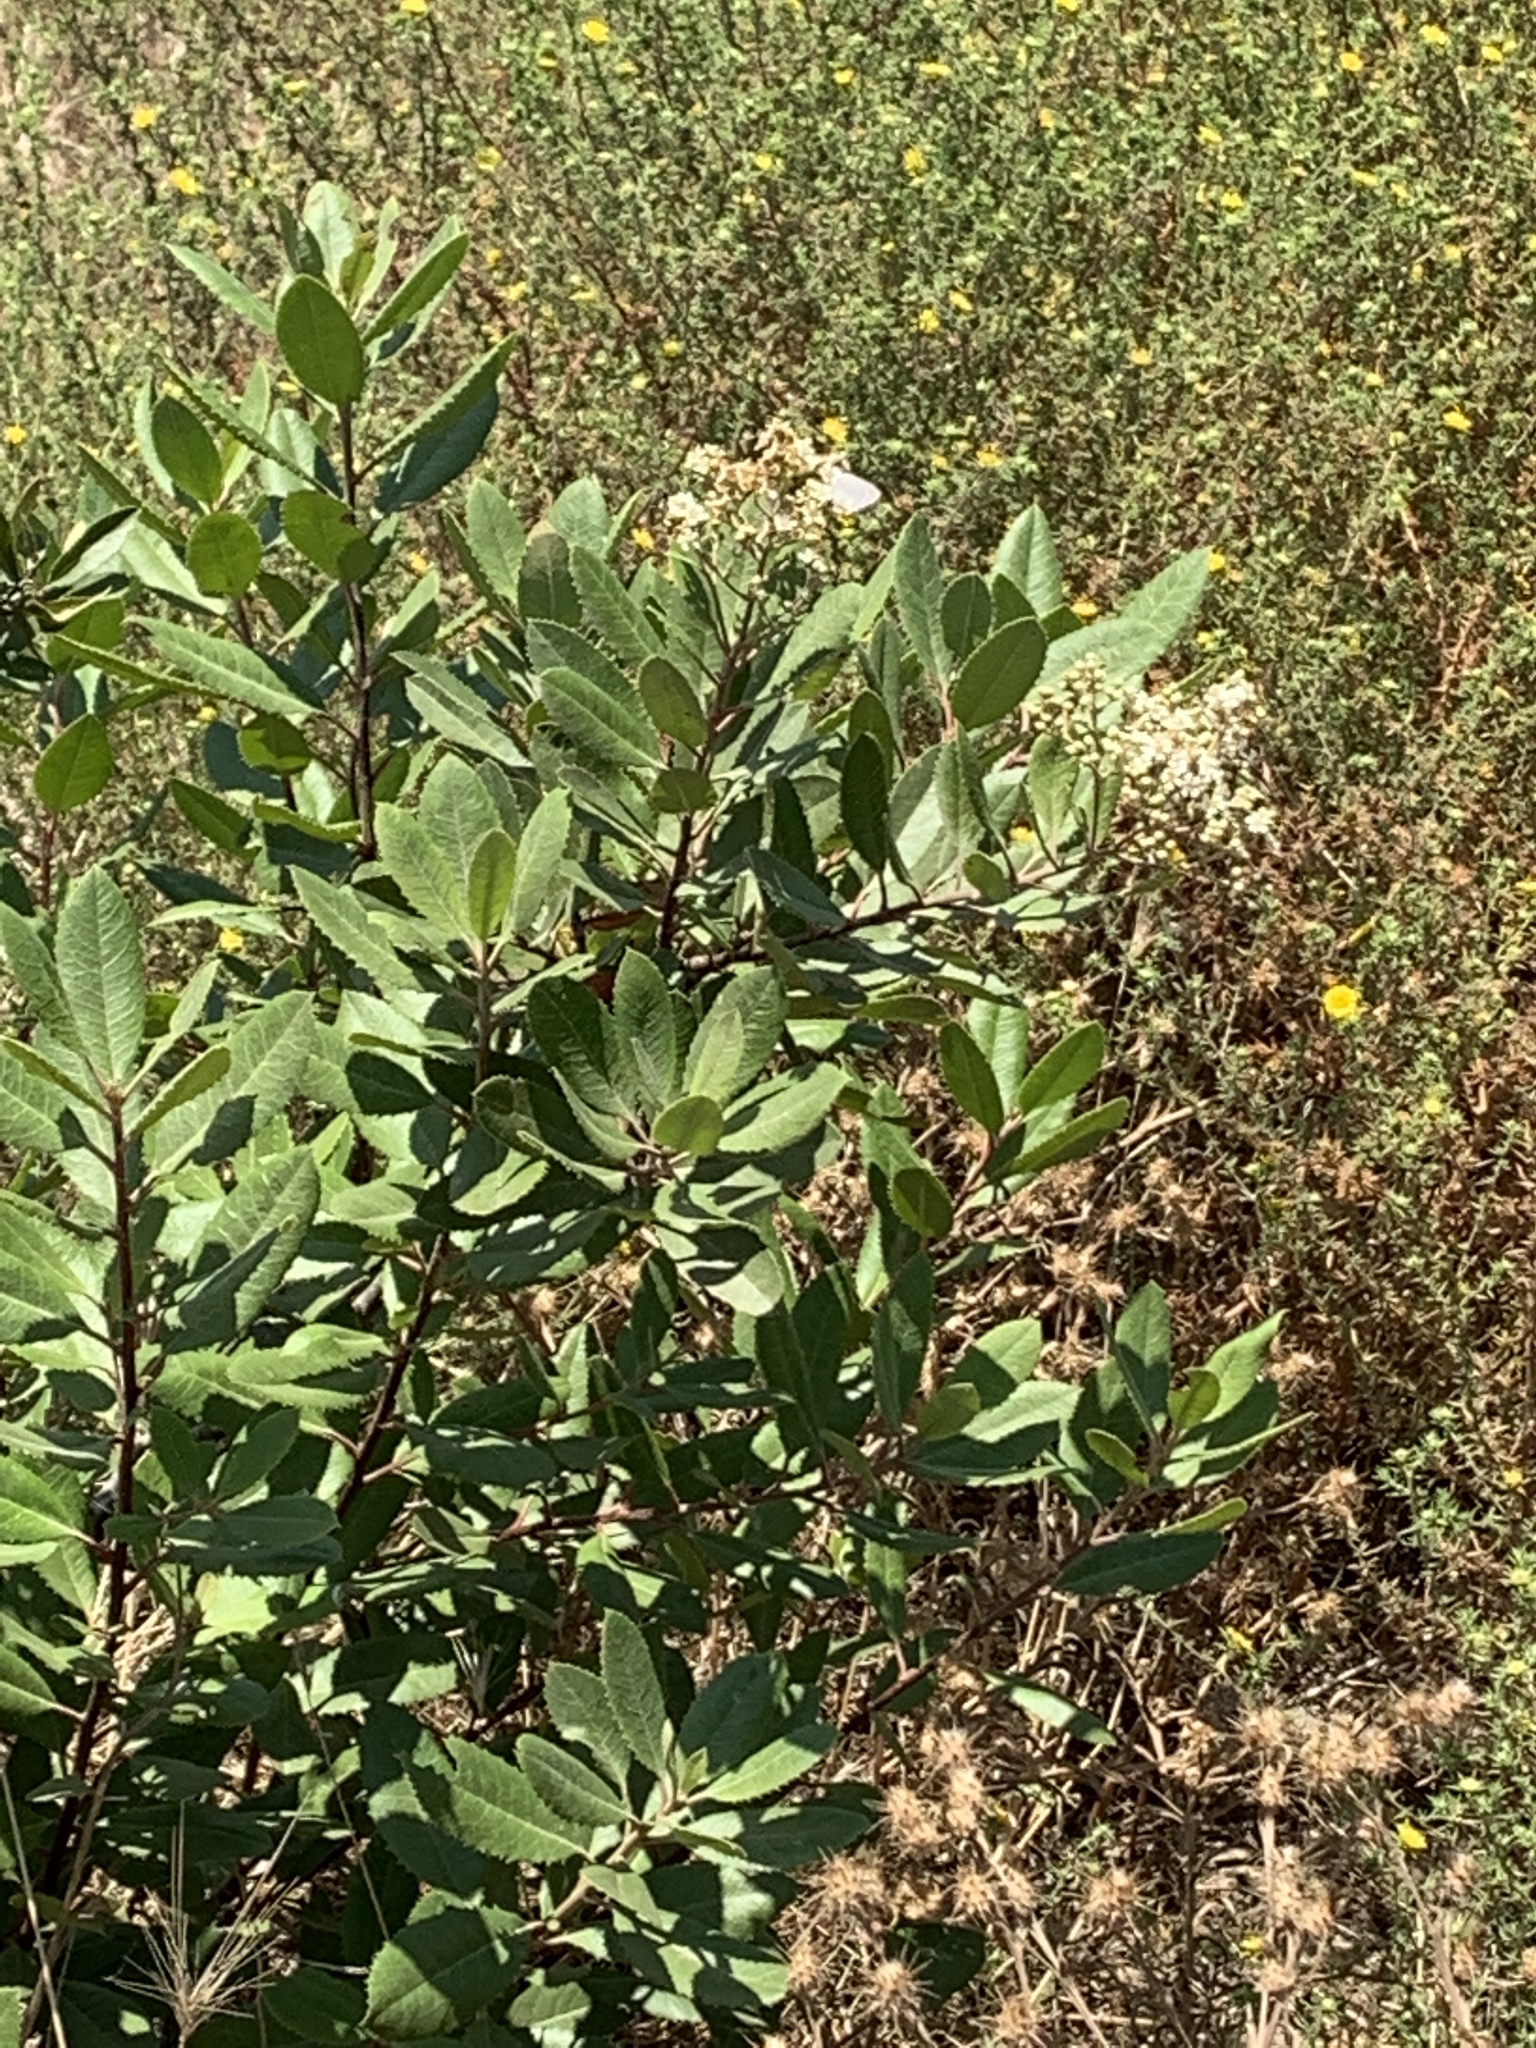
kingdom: Plantae
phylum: Tracheophyta
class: Magnoliopsida
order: Rosales
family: Rosaceae
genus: Heteromeles
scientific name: Heteromeles arbutifolia
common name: California-holly
